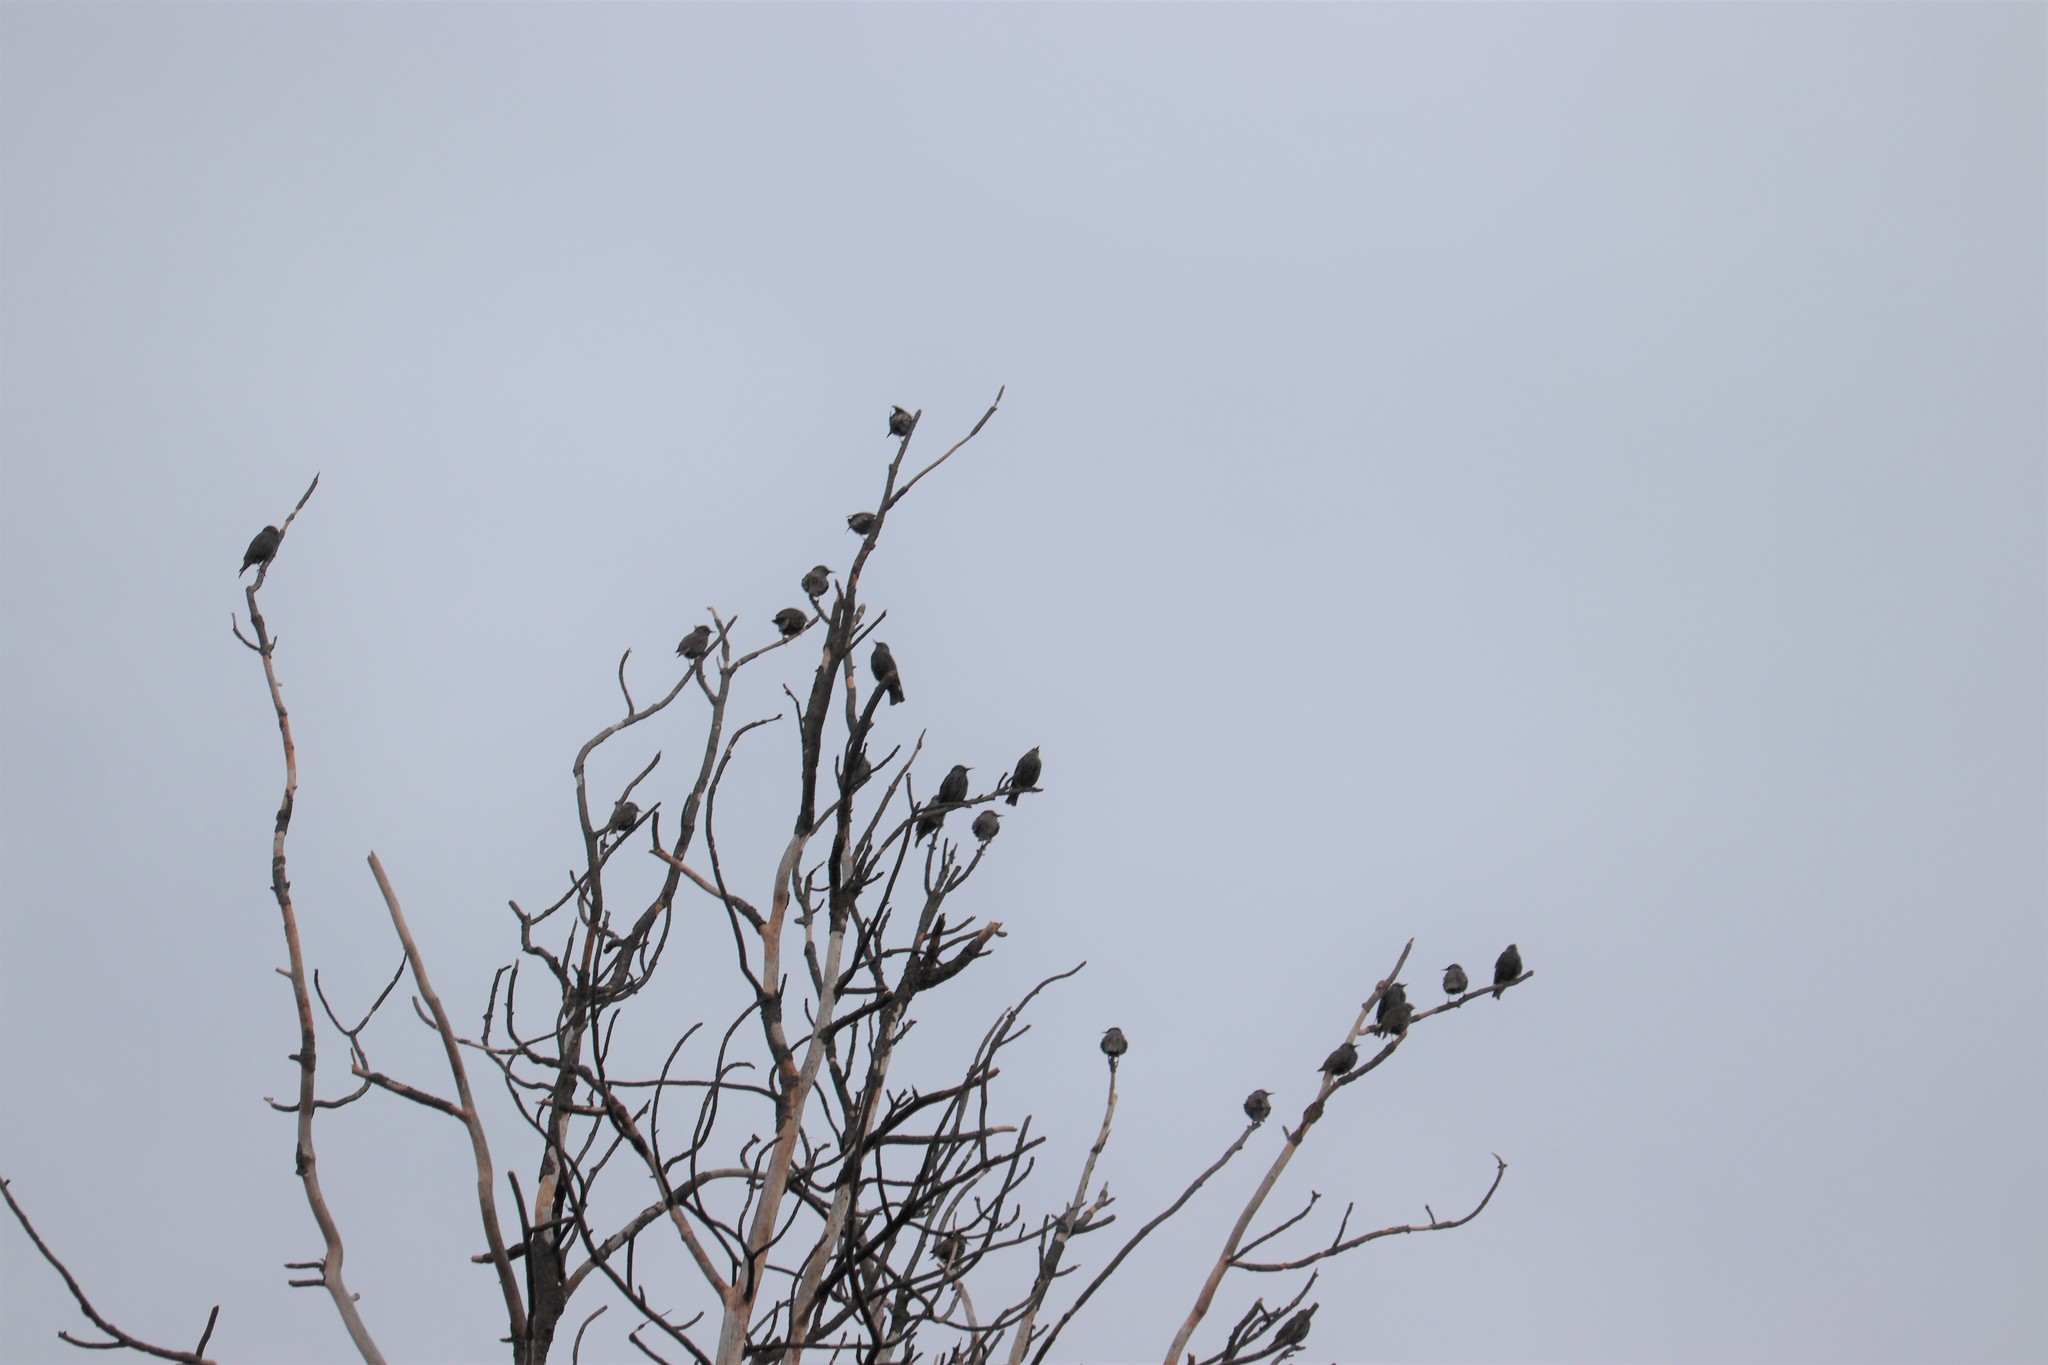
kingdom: Animalia
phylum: Chordata
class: Aves
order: Passeriformes
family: Sturnidae
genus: Sturnus
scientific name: Sturnus vulgaris
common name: Common starling
